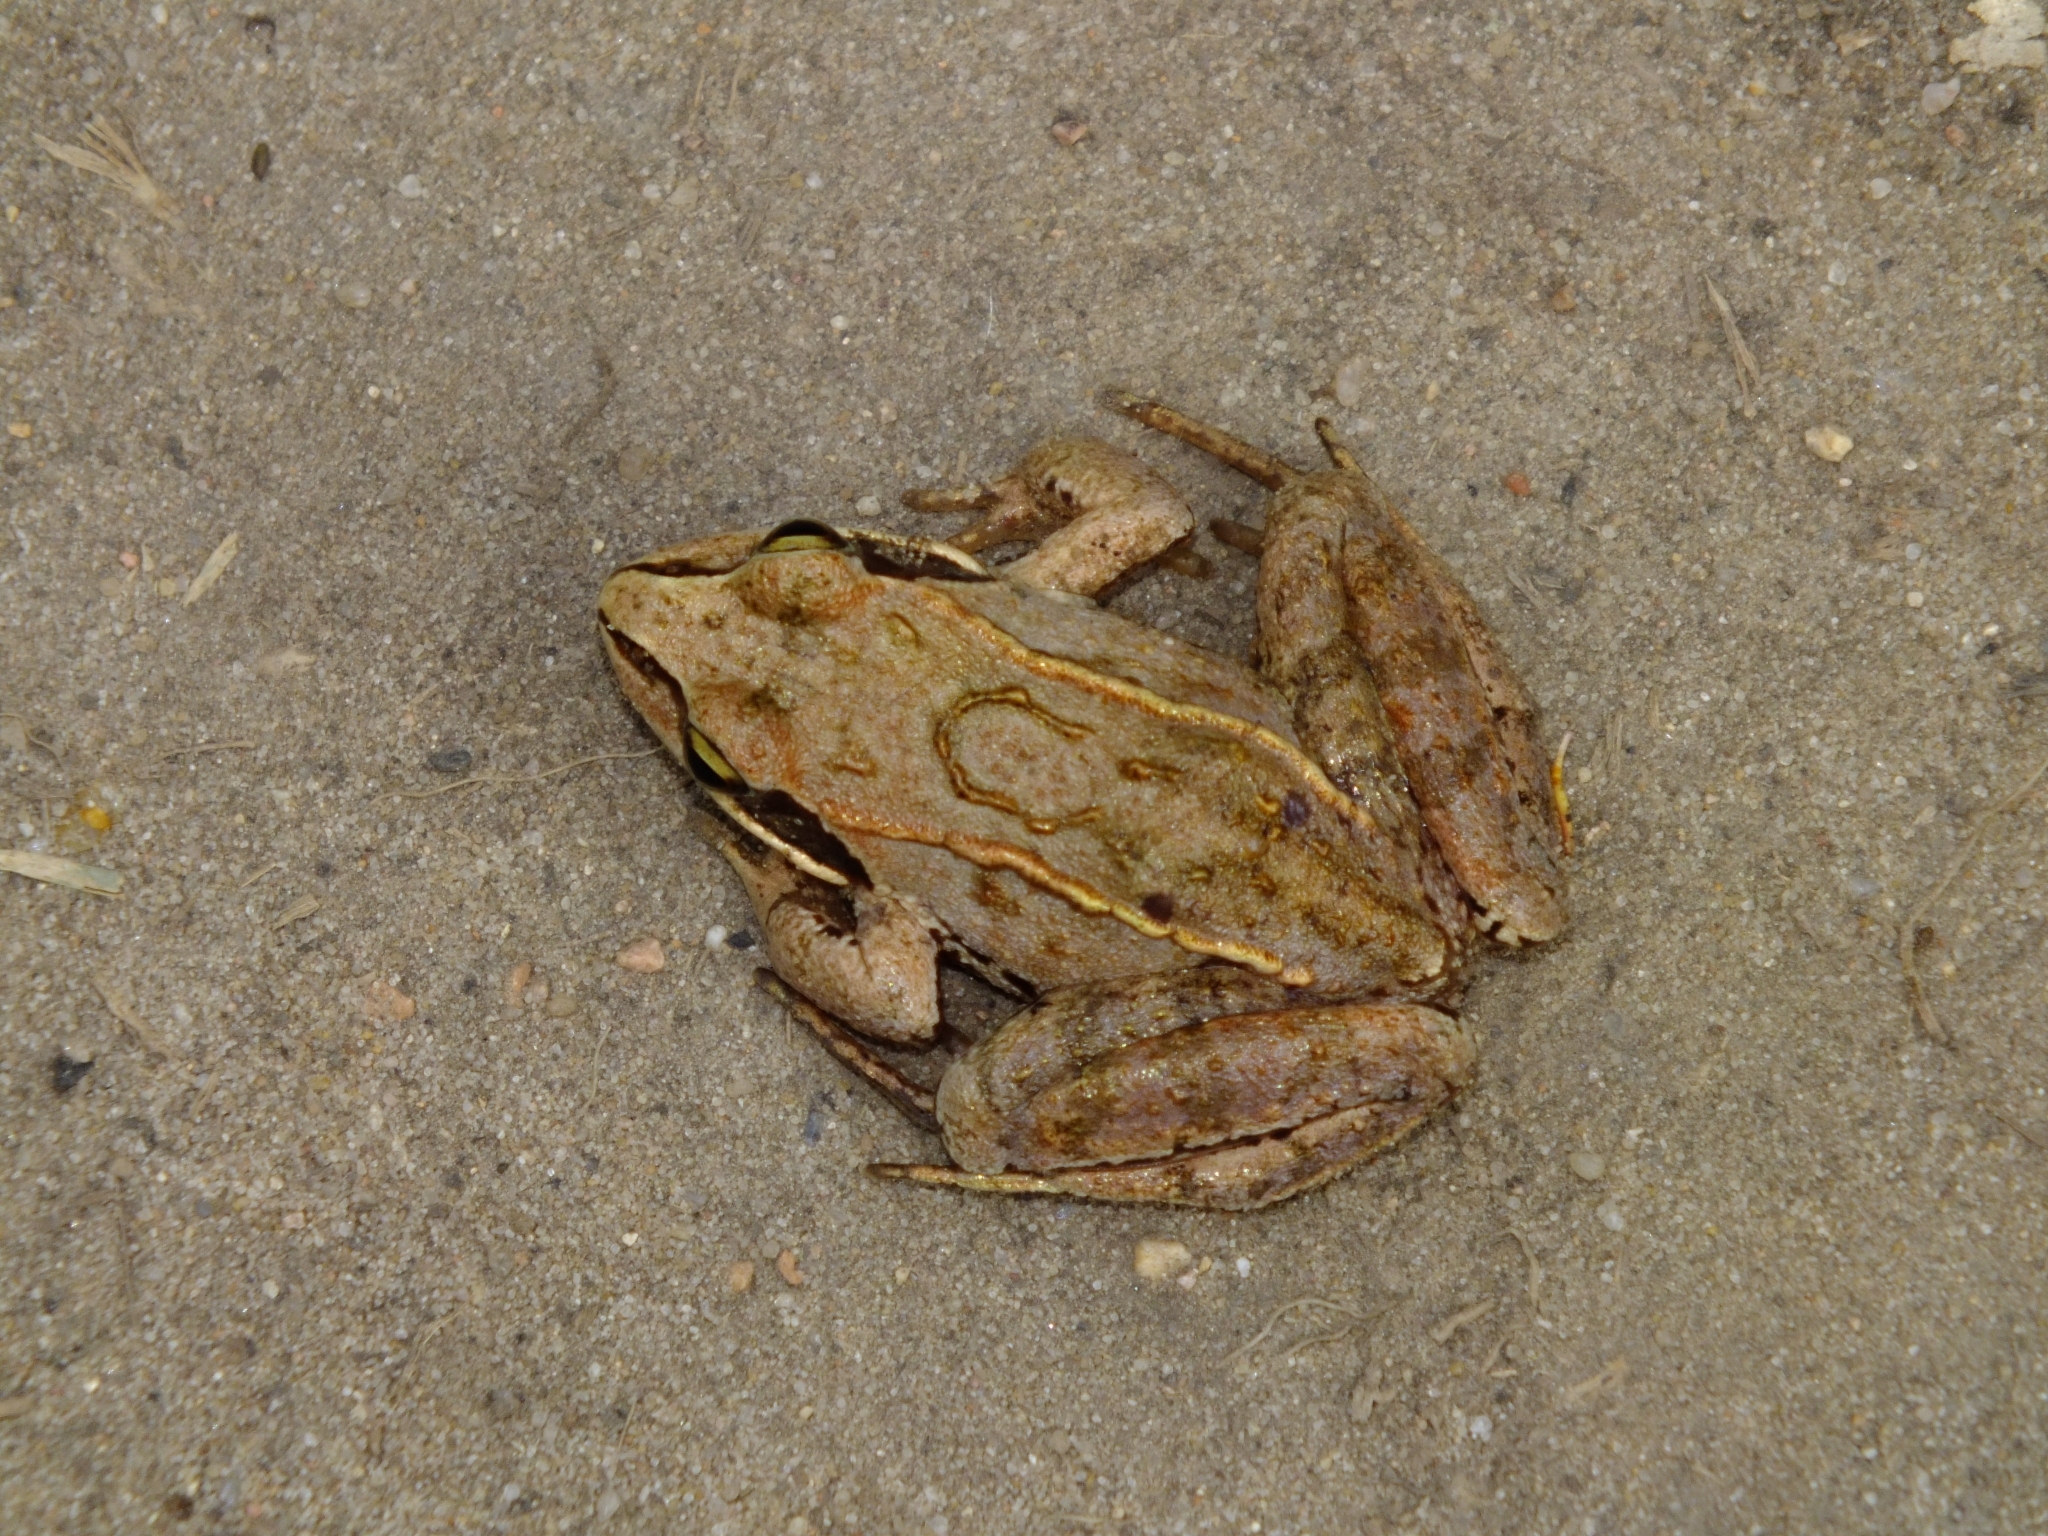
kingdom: Animalia
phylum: Chordata
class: Amphibia
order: Anura
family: Ranidae
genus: Rana
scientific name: Rana arvalis
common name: Moor frog
